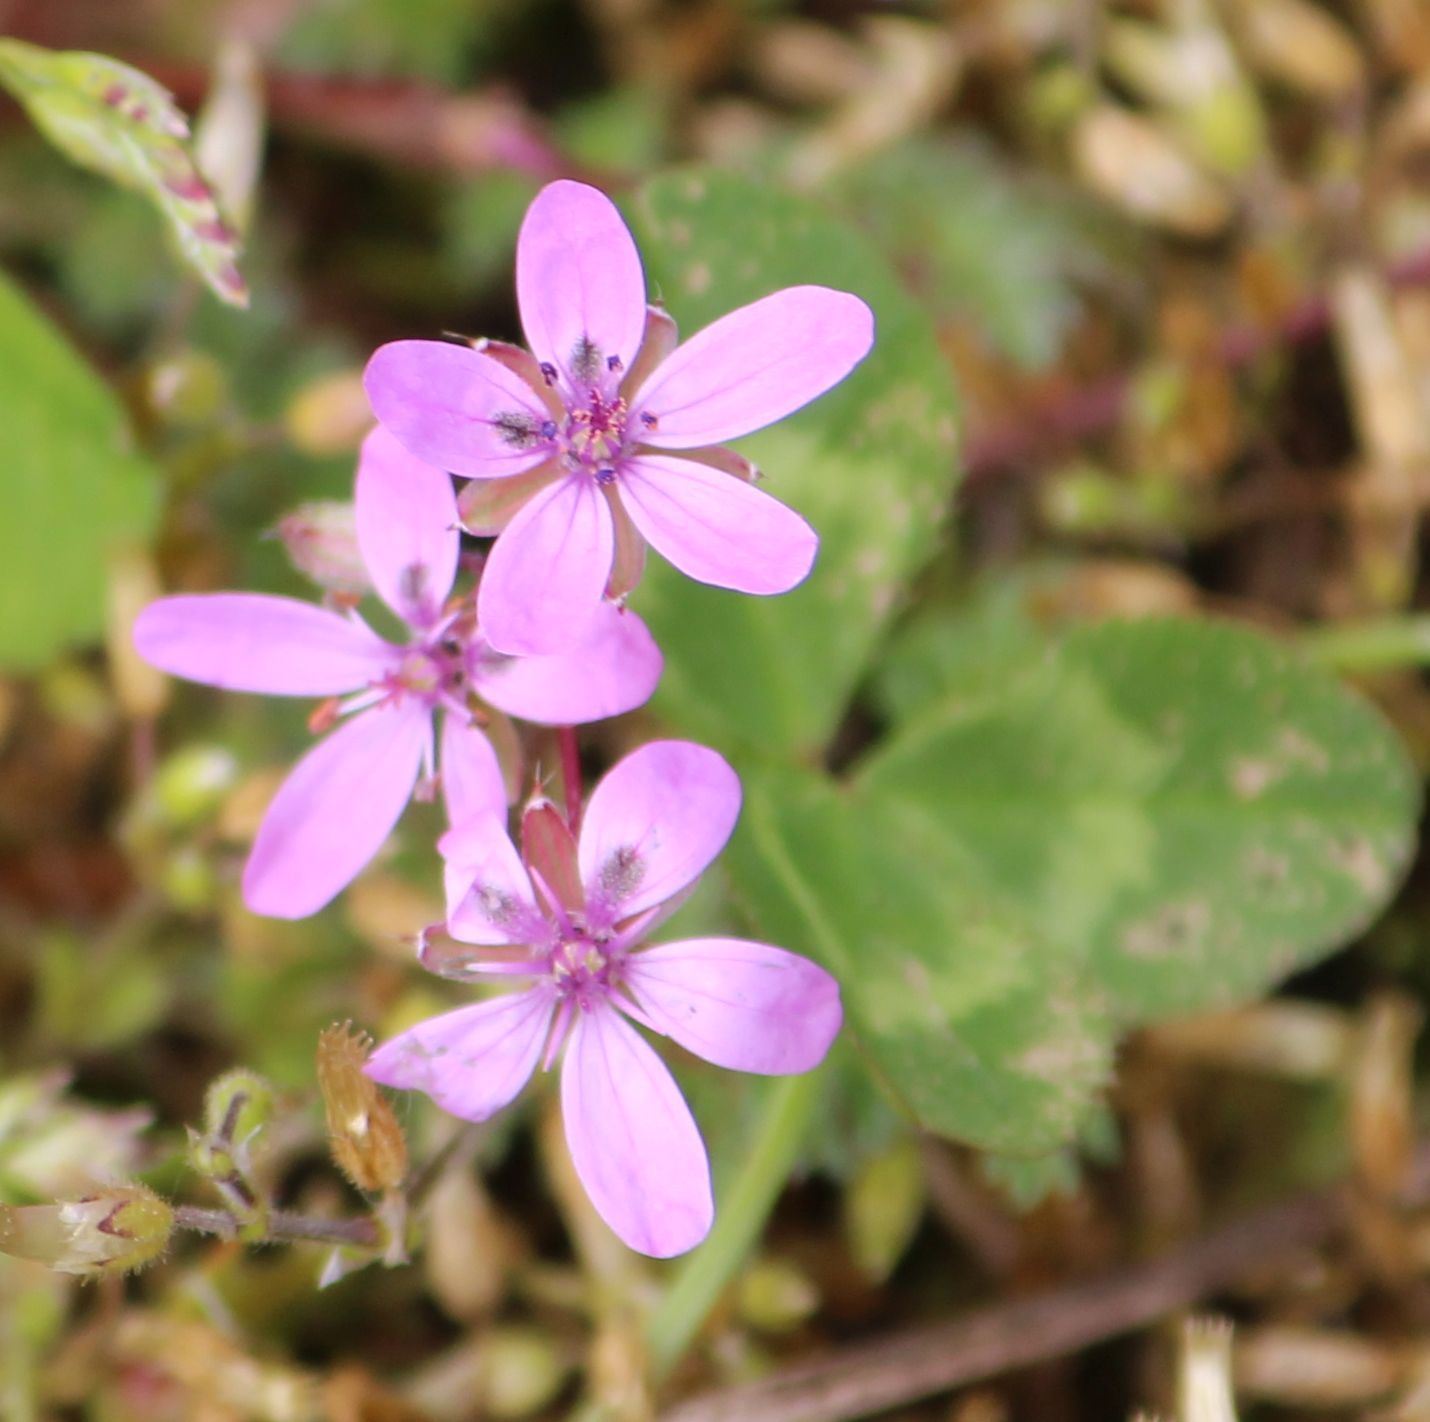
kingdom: Plantae
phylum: Tracheophyta
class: Magnoliopsida
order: Geraniales
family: Geraniaceae
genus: Erodium
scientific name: Erodium cicutarium
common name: Common stork's-bill
